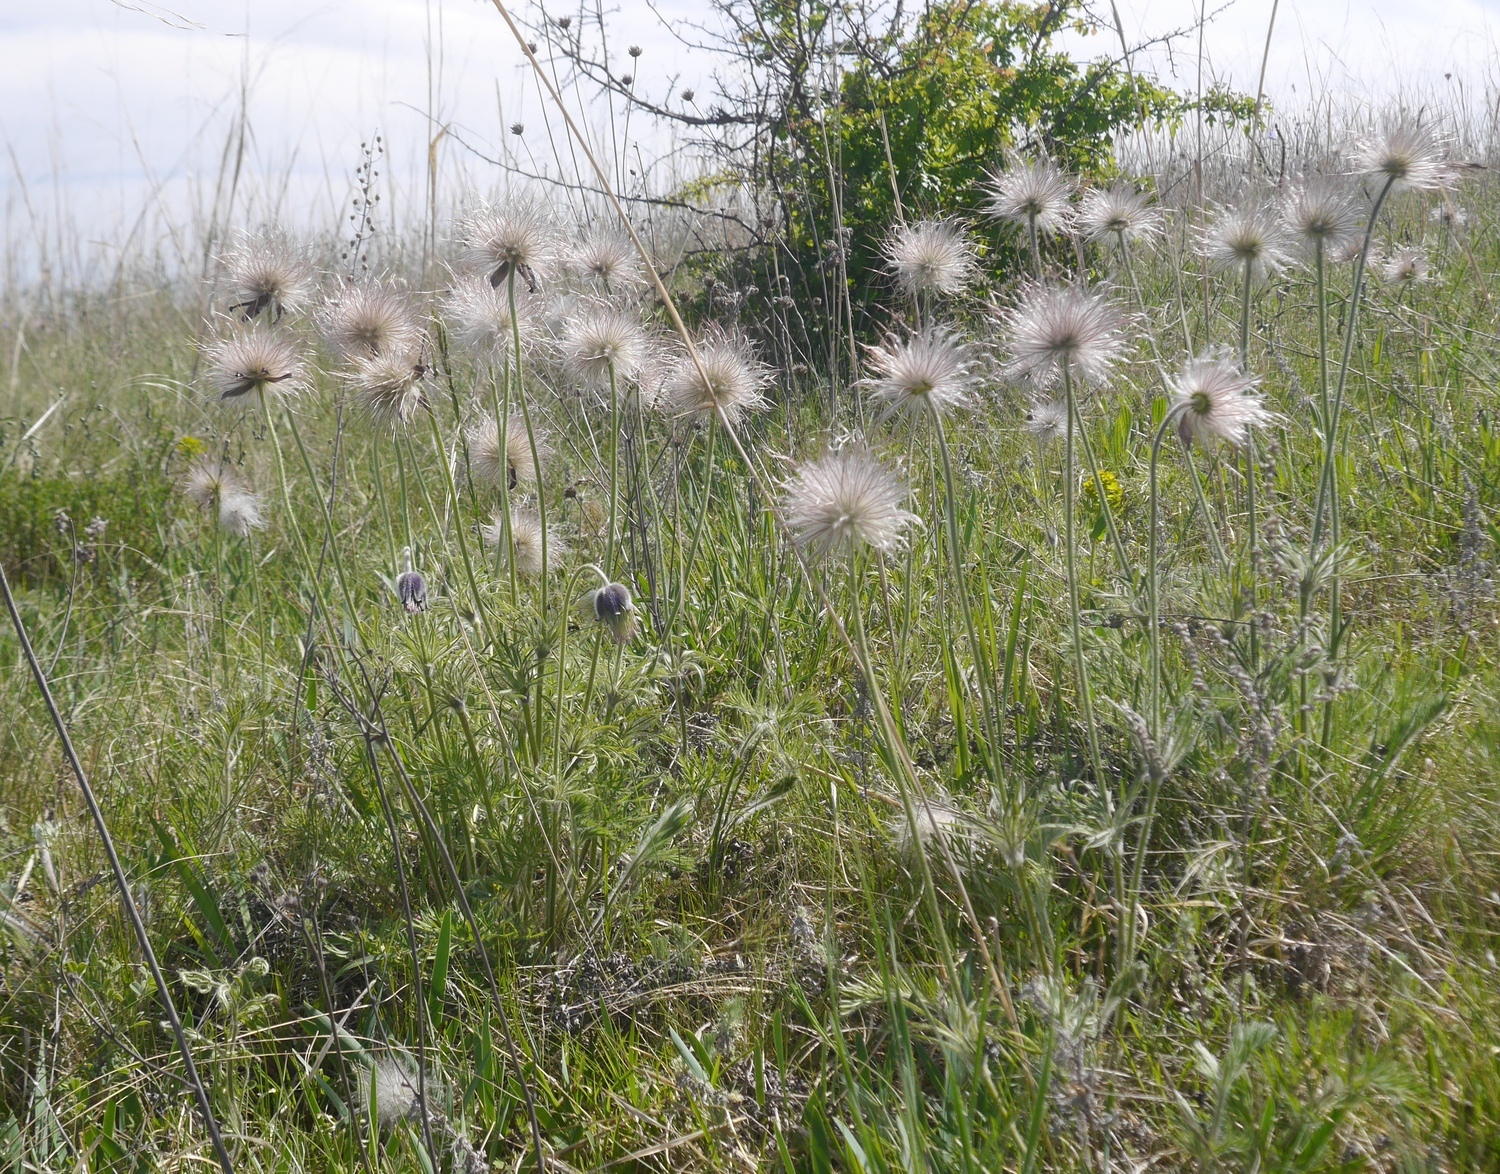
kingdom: Plantae
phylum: Tracheophyta
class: Magnoliopsida
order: Ranunculales
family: Ranunculaceae
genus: Pulsatilla
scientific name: Pulsatilla pratensis
